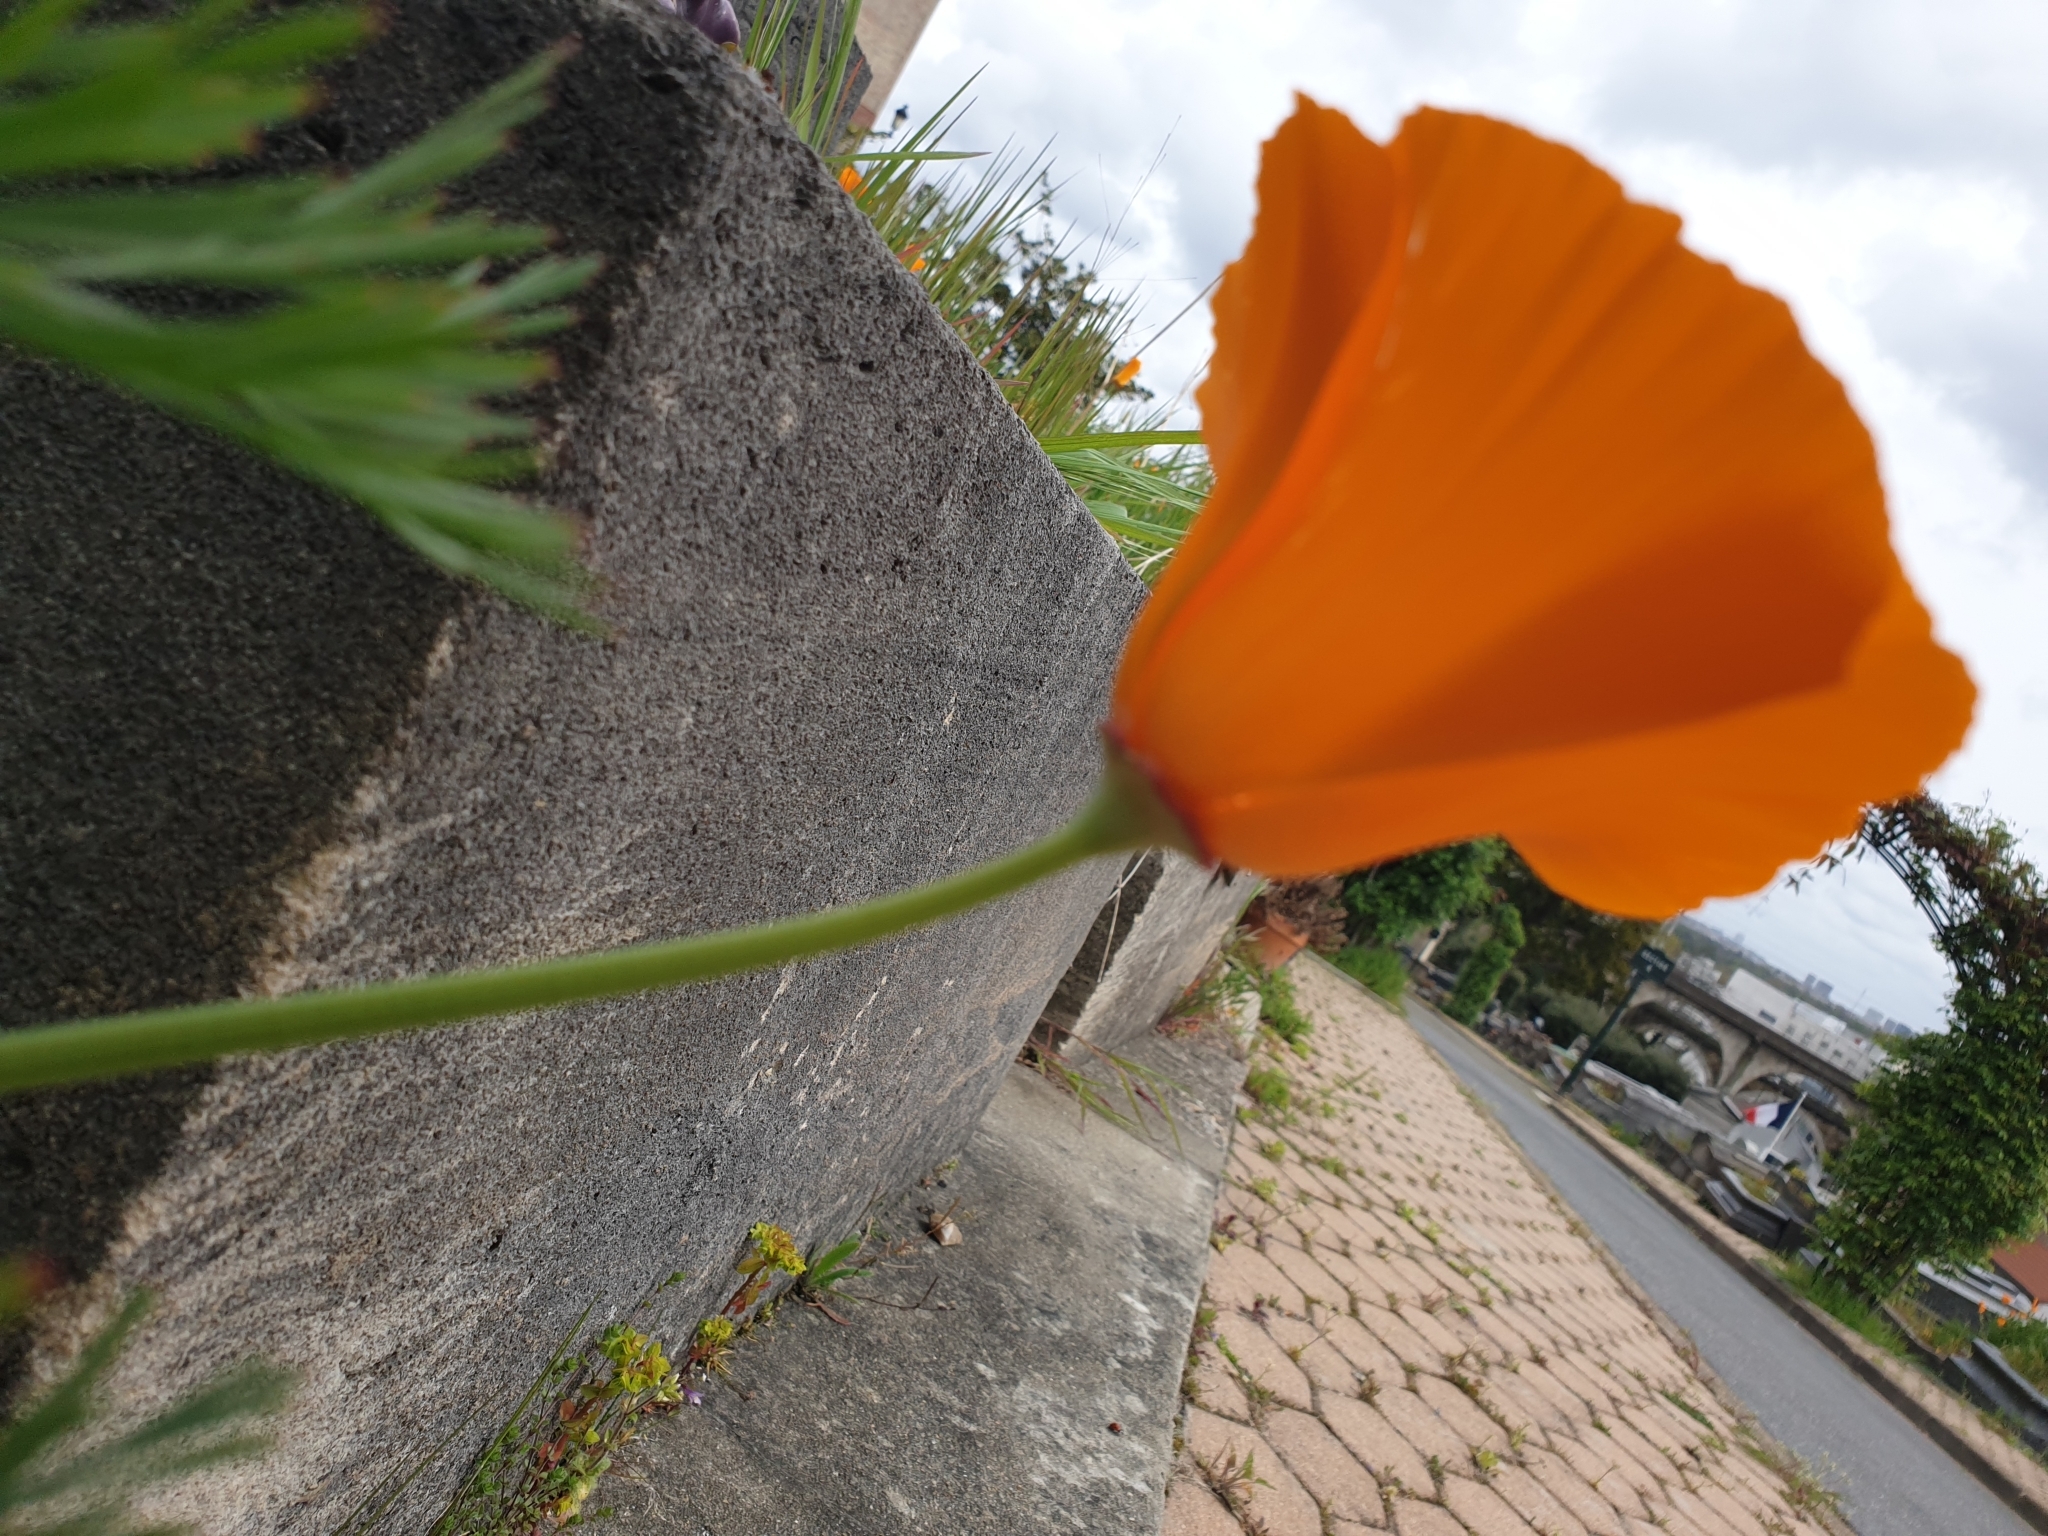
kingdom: Plantae
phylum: Tracheophyta
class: Magnoliopsida
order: Ranunculales
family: Papaveraceae
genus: Eschscholzia
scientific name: Eschscholzia californica
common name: California poppy
